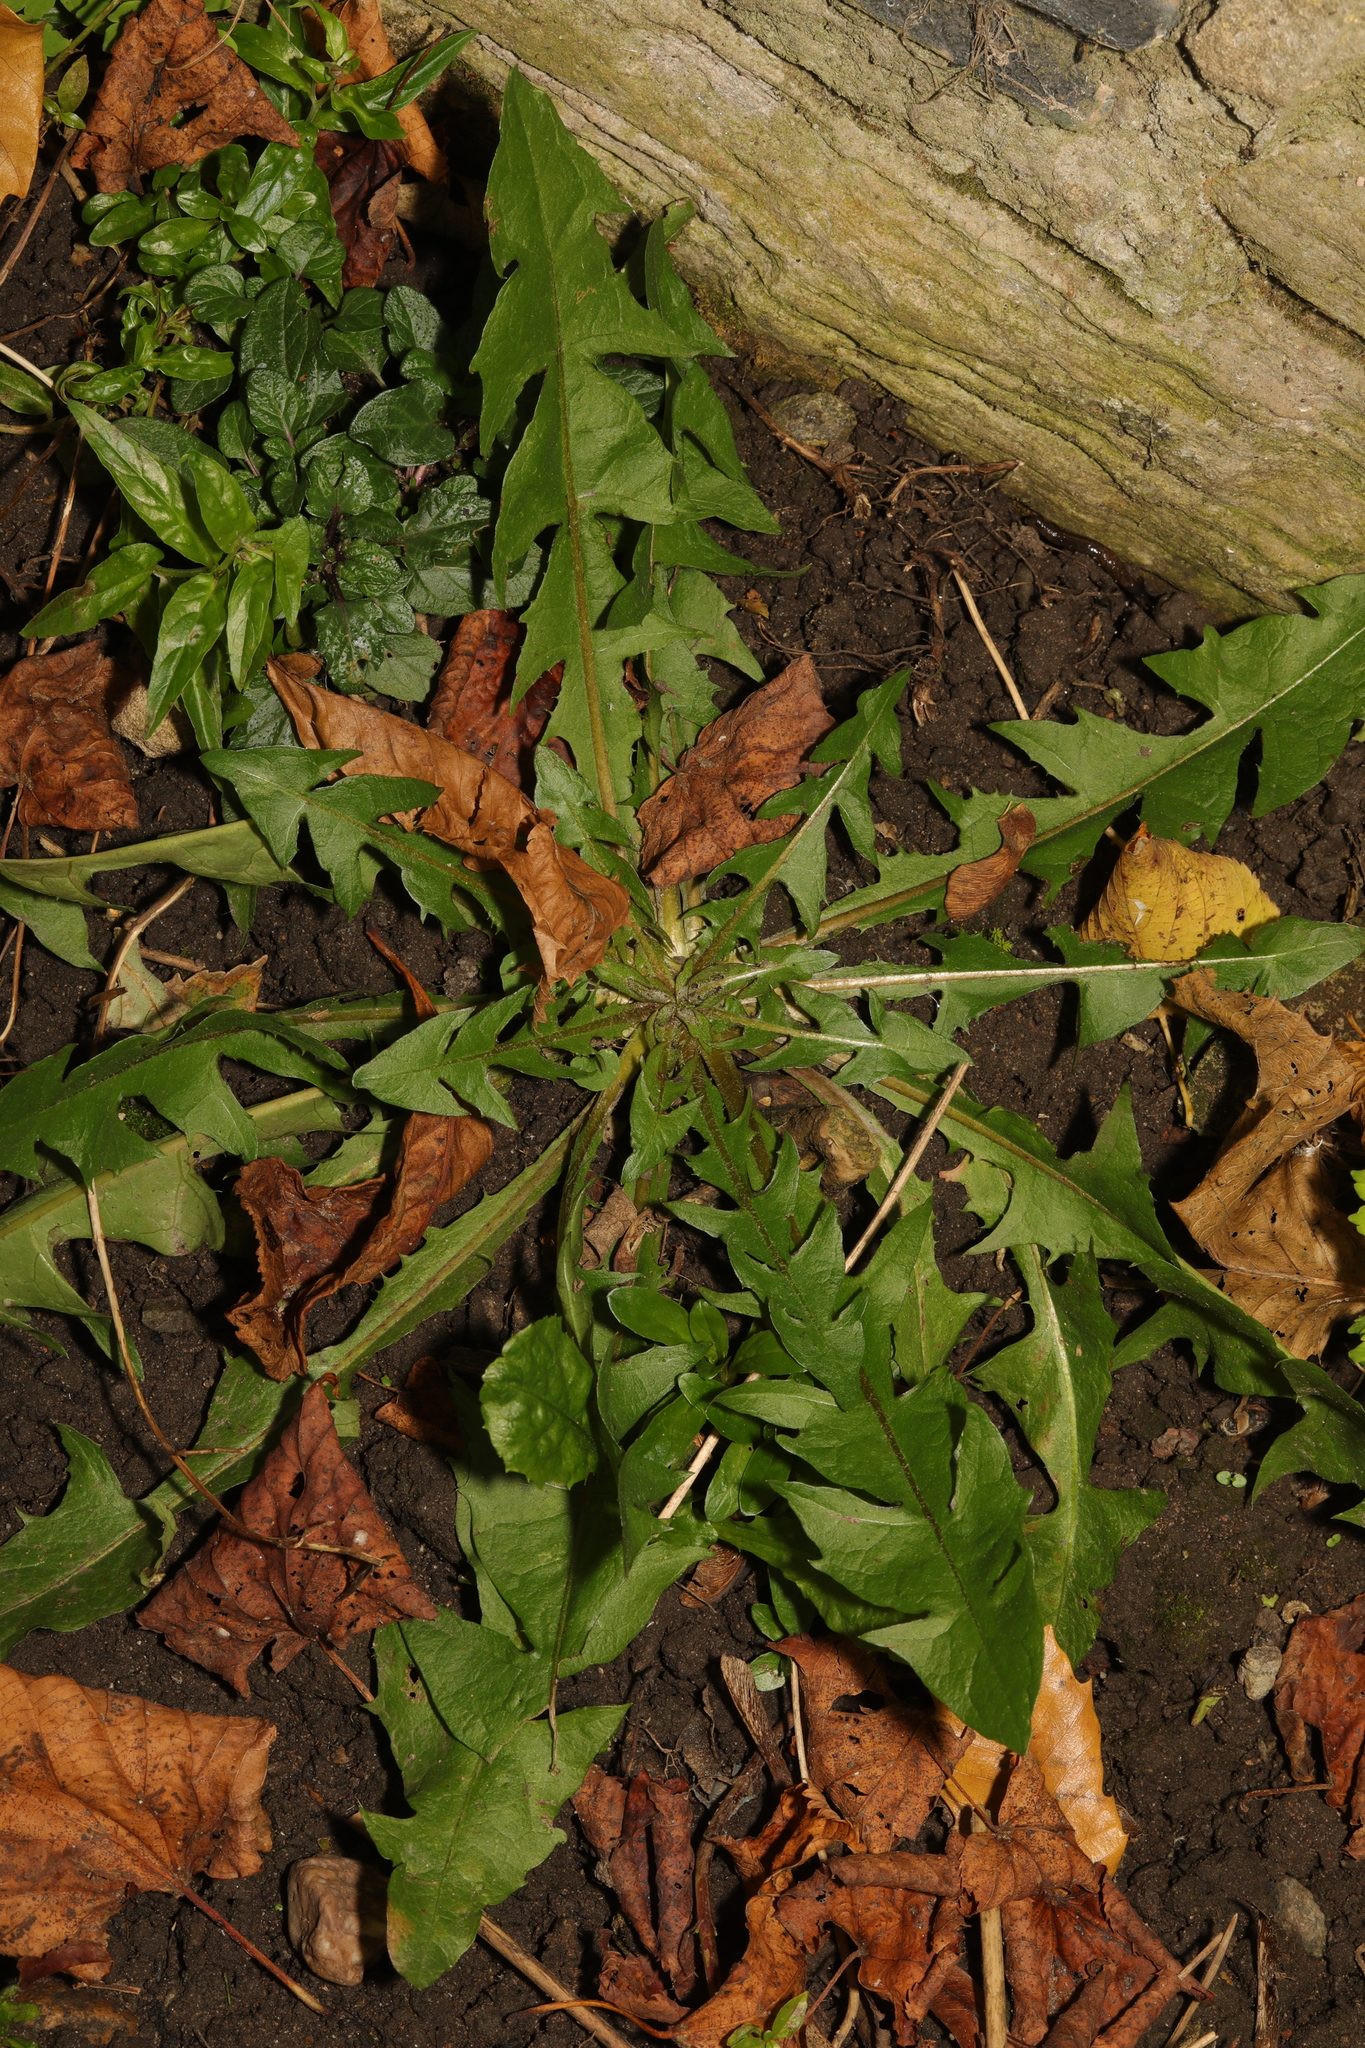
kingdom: Plantae
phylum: Tracheophyta
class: Magnoliopsida
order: Asterales
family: Asteraceae
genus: Taraxacum
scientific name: Taraxacum officinale
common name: Common dandelion
